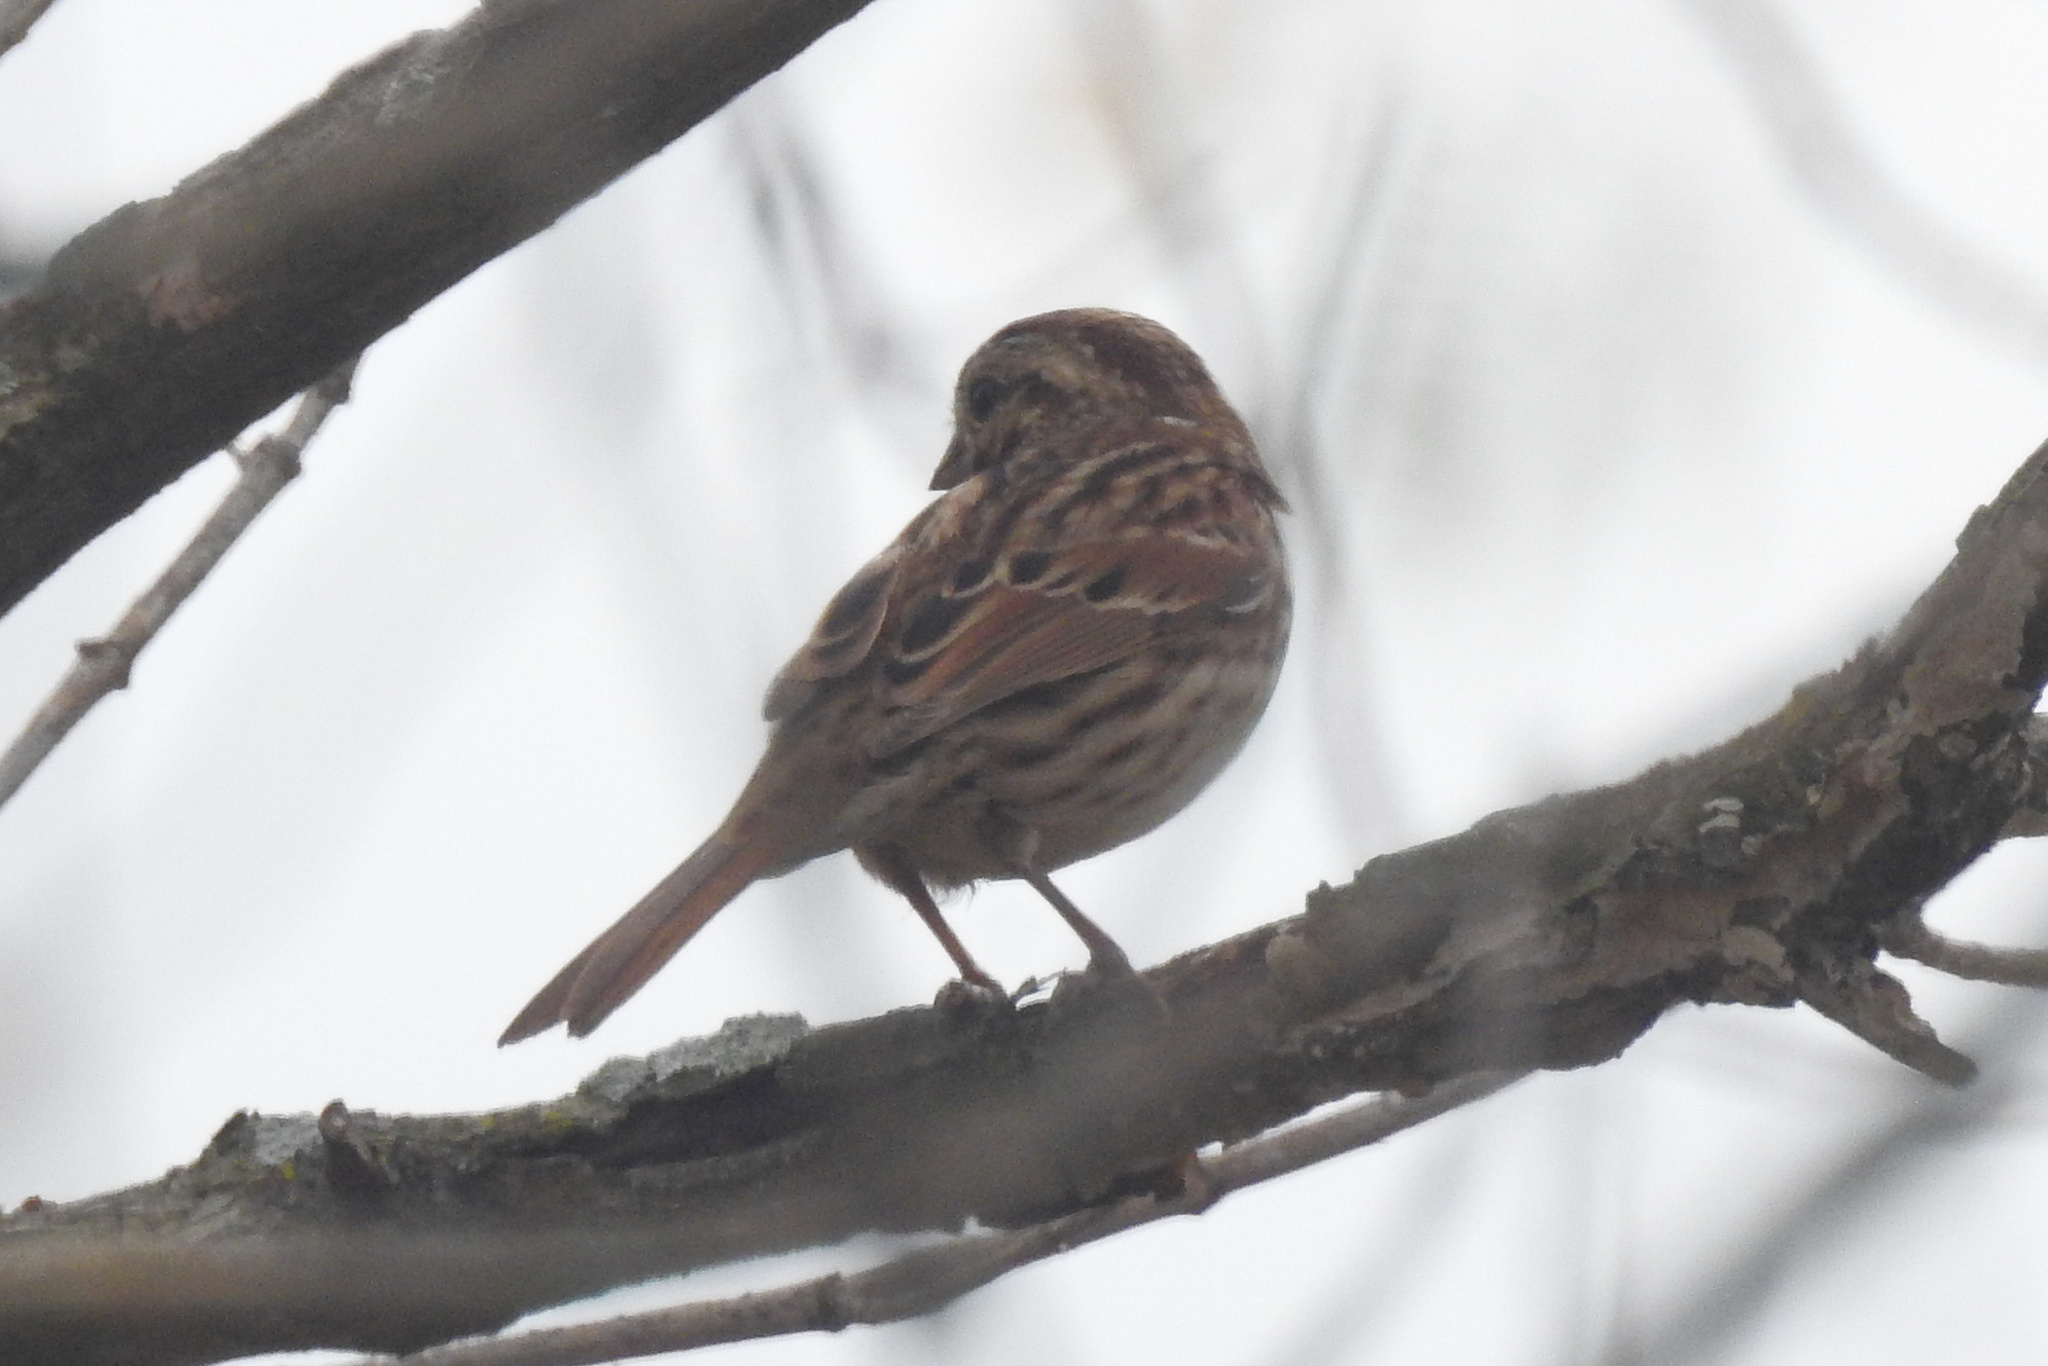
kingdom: Animalia
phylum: Chordata
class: Aves
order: Passeriformes
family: Passerellidae
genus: Melospiza
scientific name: Melospiza melodia
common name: Song sparrow
